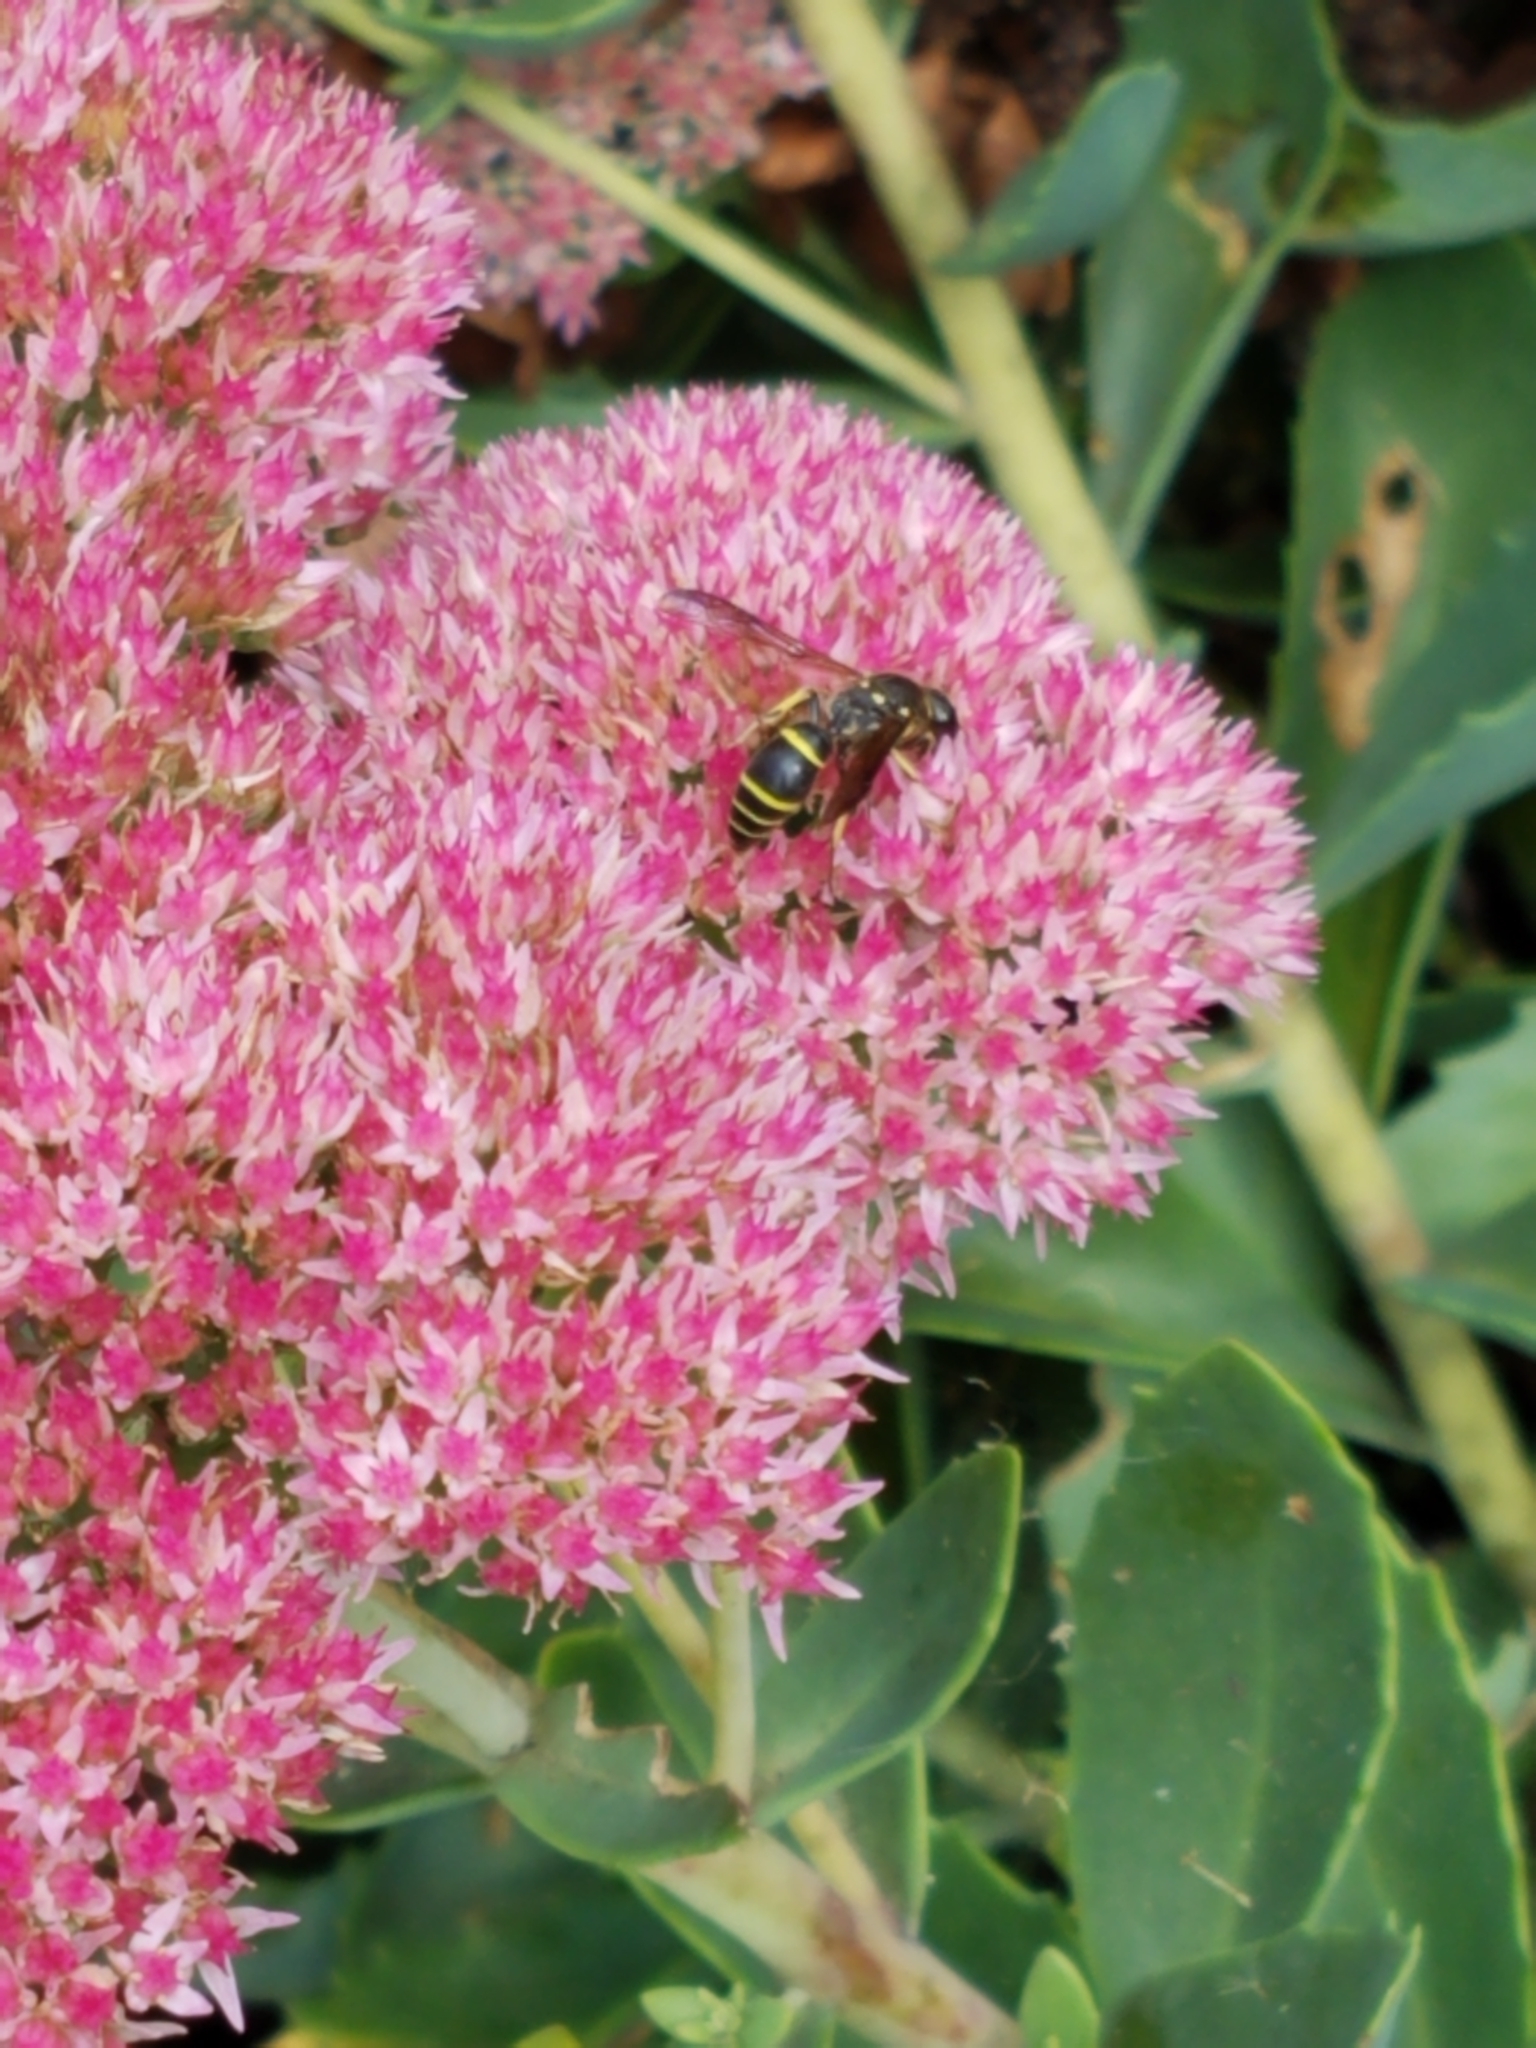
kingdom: Animalia
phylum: Arthropoda
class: Insecta
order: Hymenoptera
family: Vespidae
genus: Ancistrocerus
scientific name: Ancistrocerus
